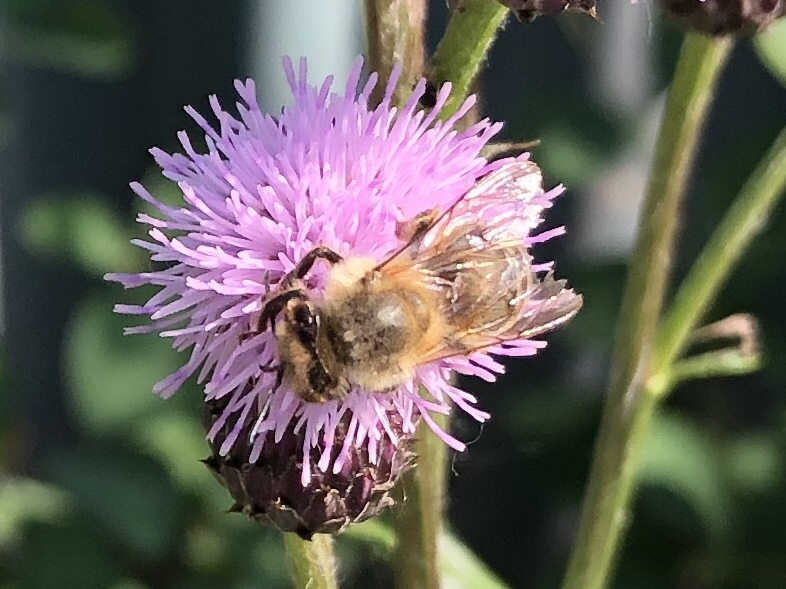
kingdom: Animalia
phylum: Arthropoda
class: Insecta
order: Hymenoptera
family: Apidae
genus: Apis
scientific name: Apis mellifera
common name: Honey bee
